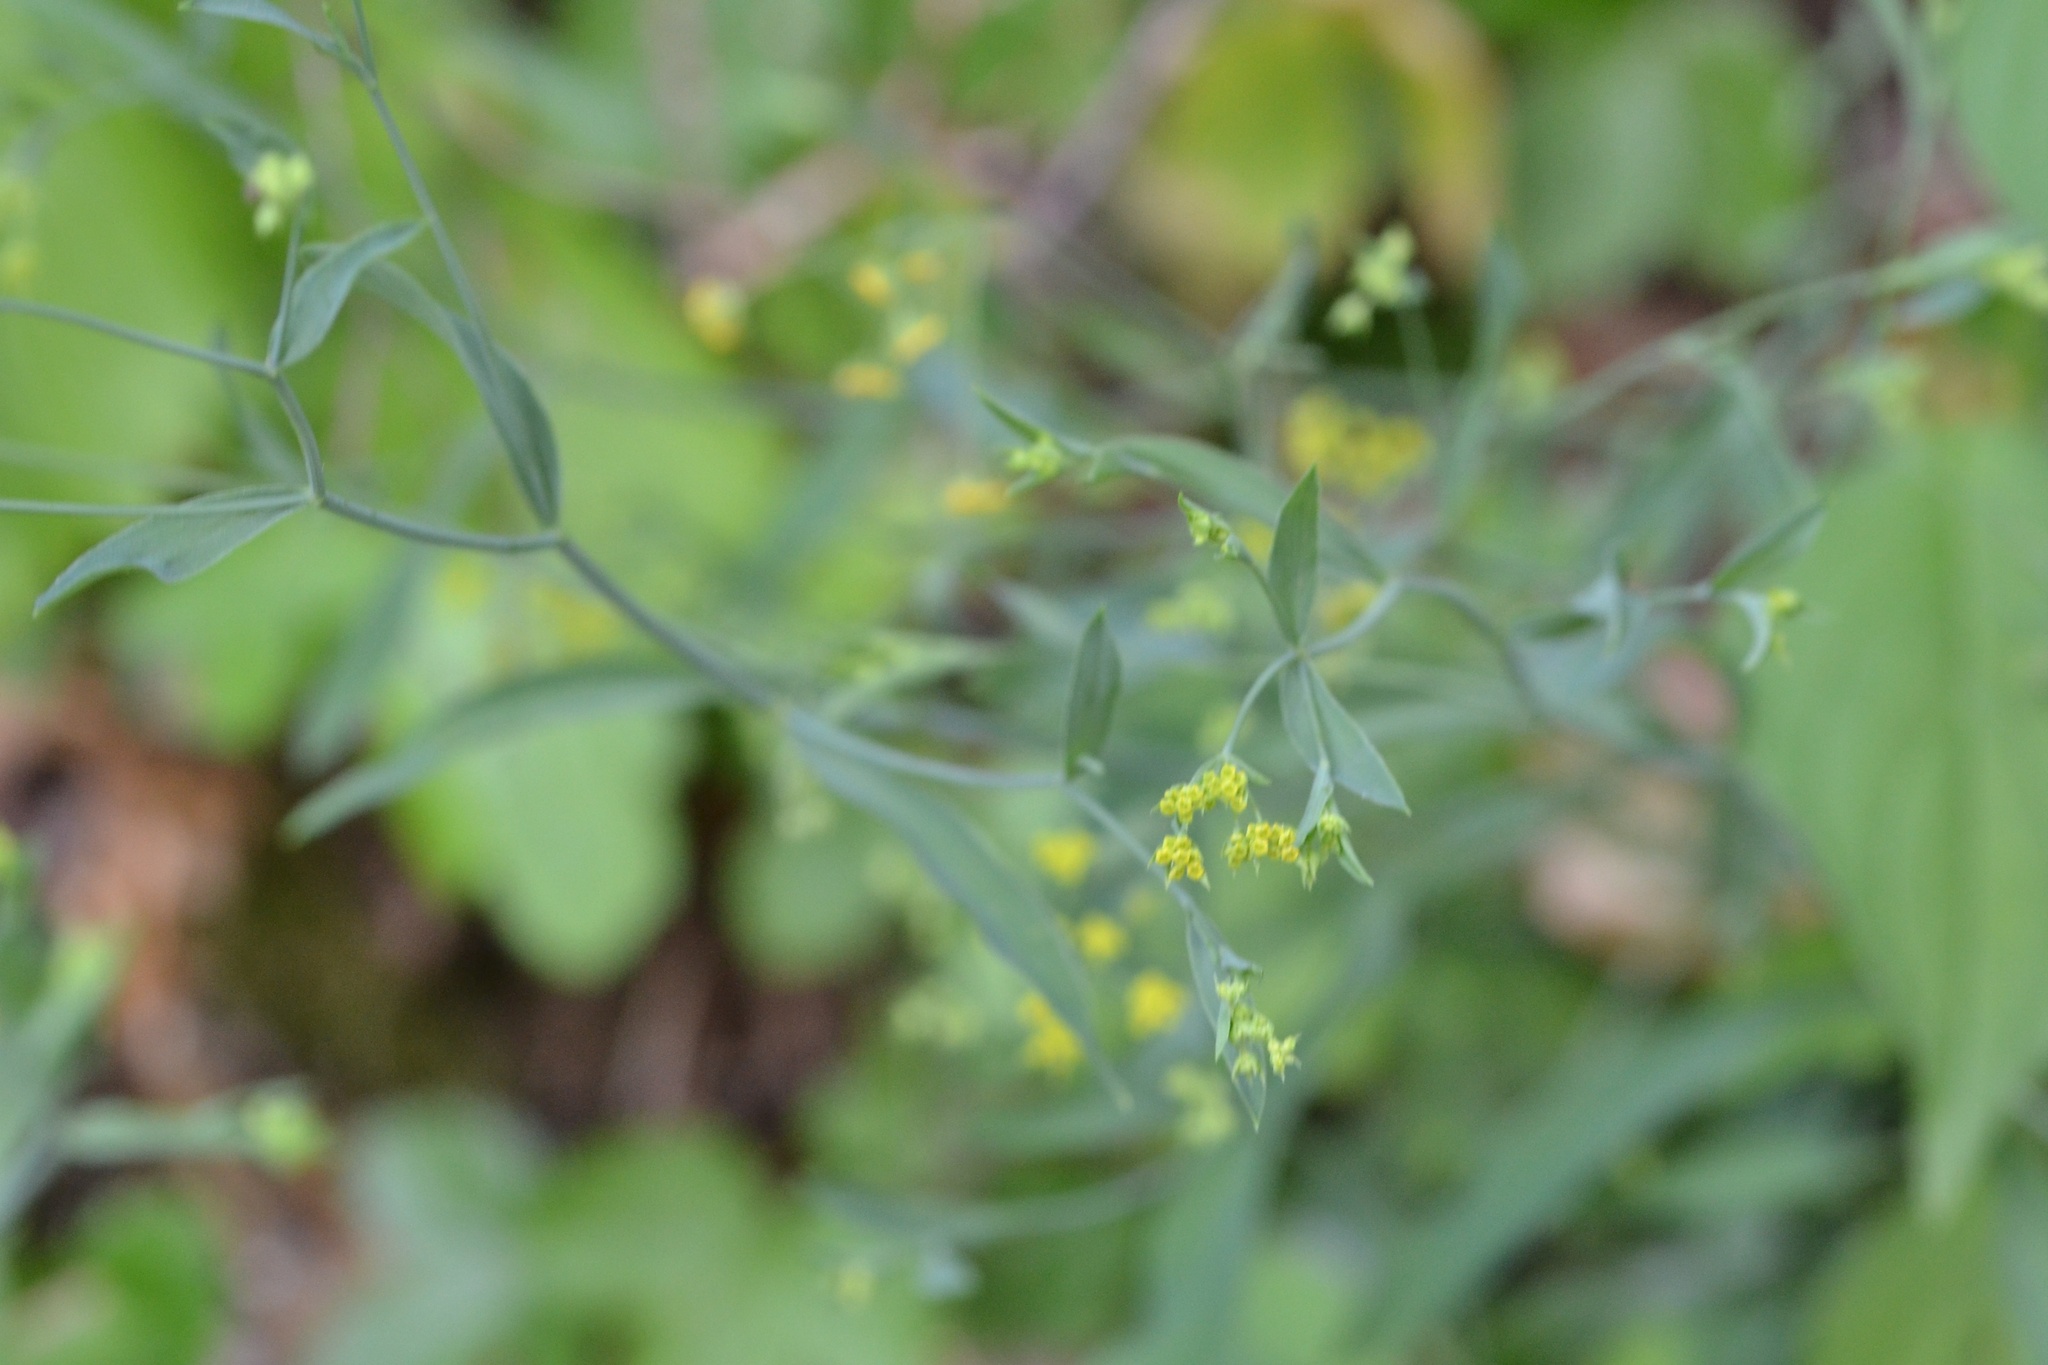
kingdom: Plantae
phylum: Tracheophyta
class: Magnoliopsida
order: Apiales
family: Apiaceae
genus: Bupleurum
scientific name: Bupleurum falcatum
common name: Sickle-leaved hare's-ear
